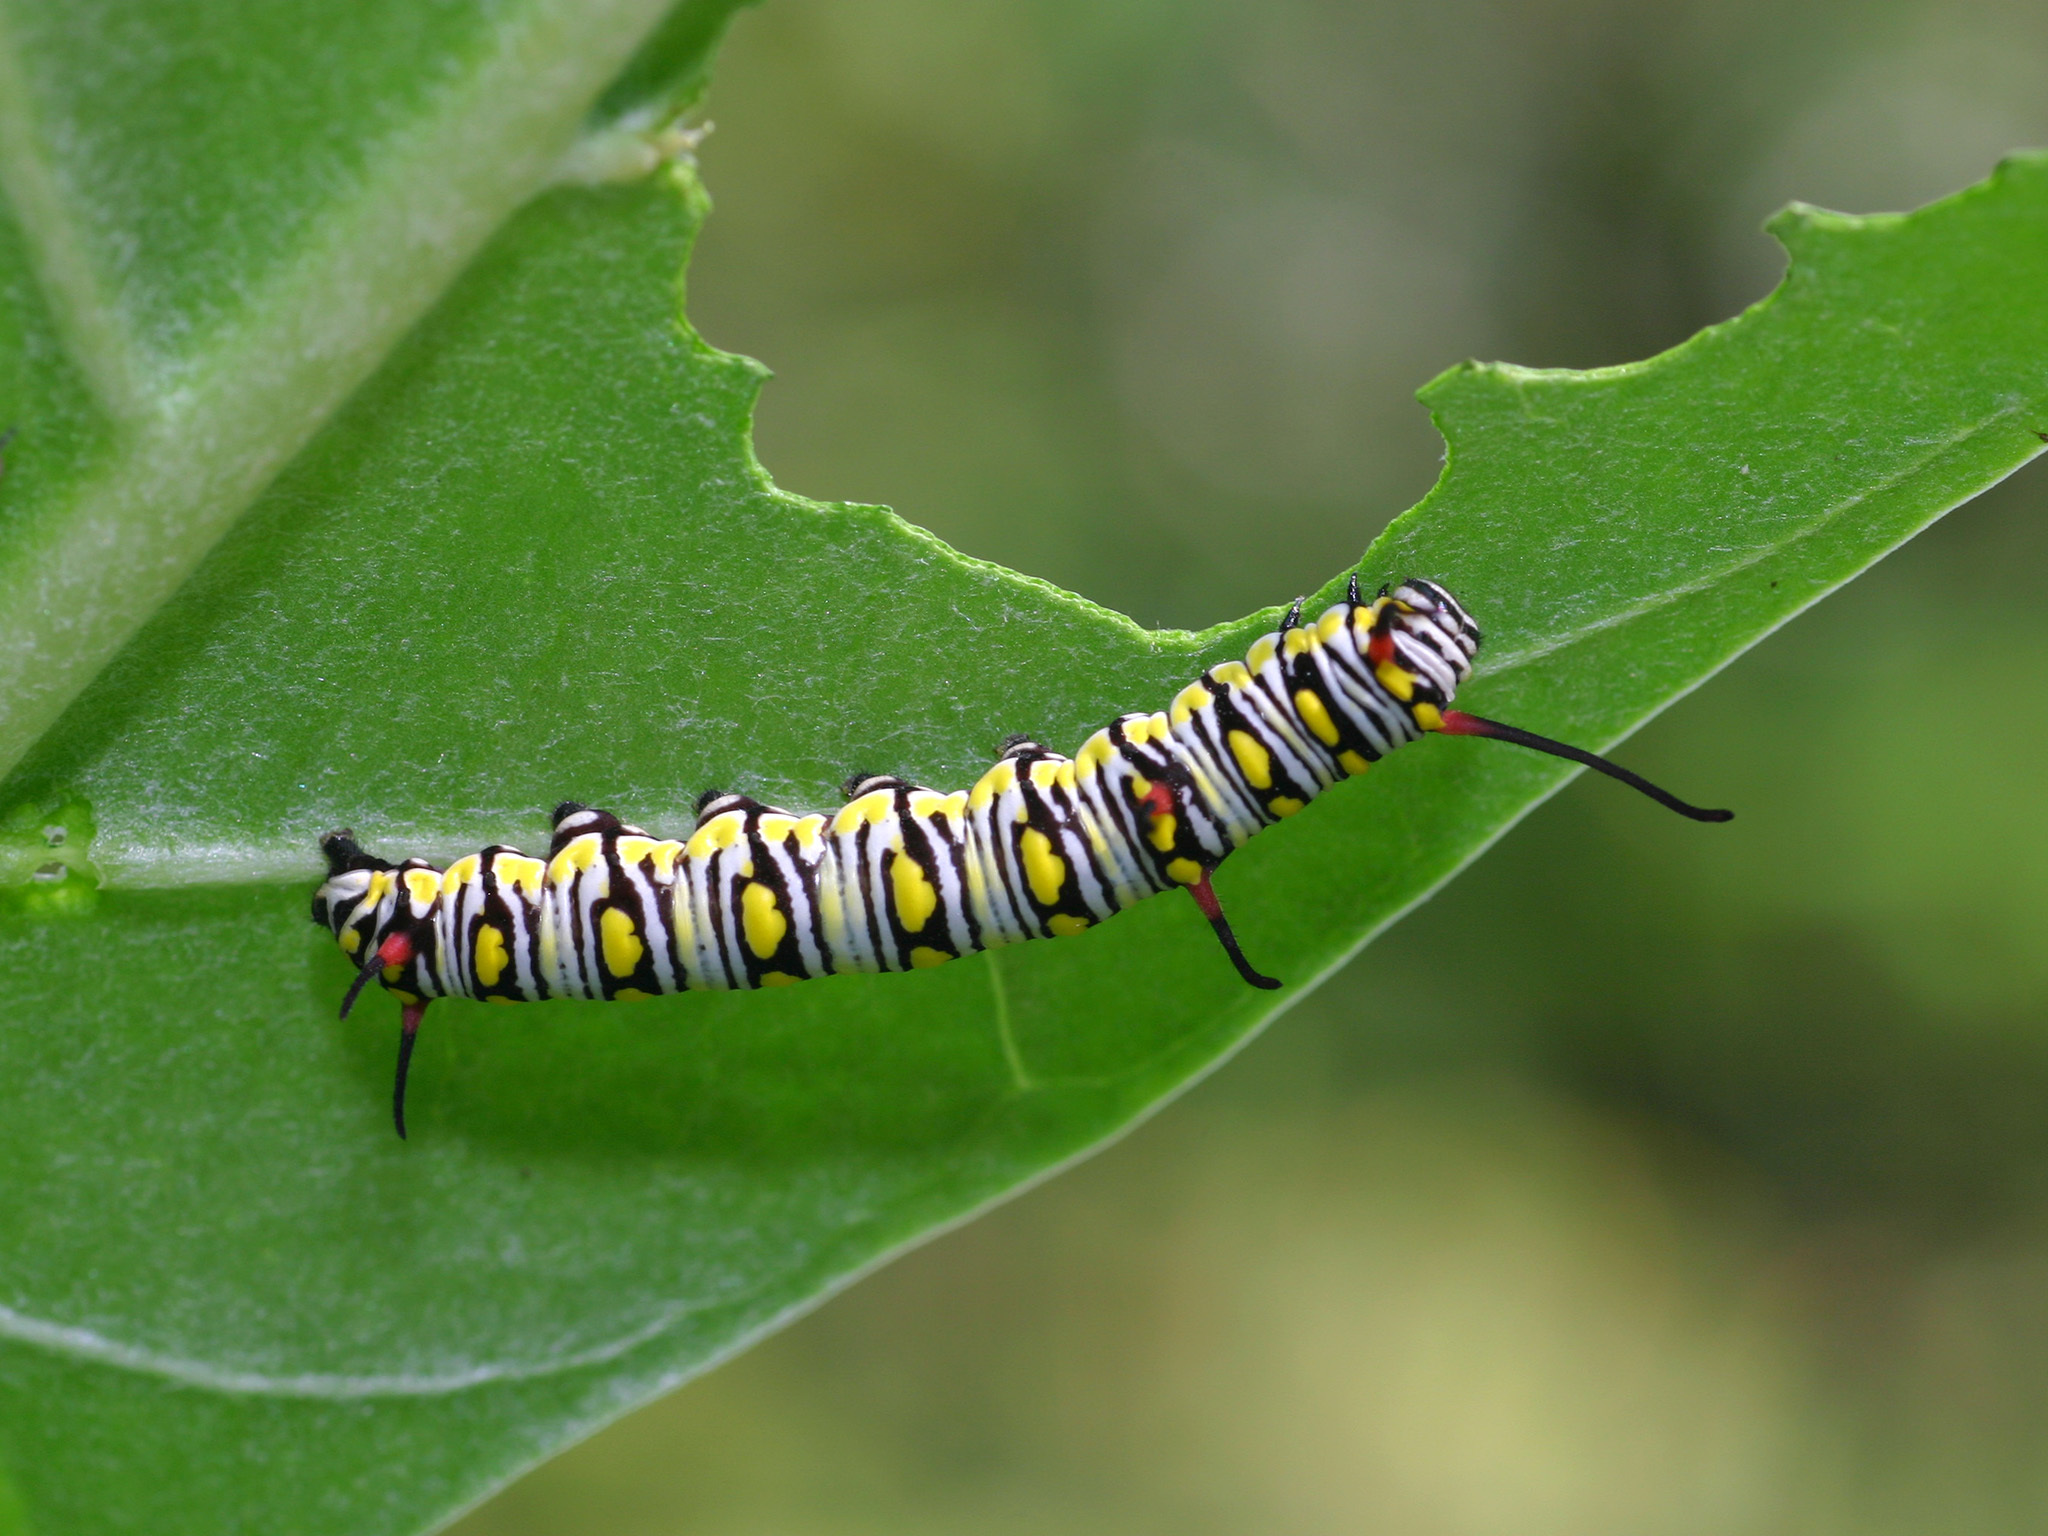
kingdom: Animalia
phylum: Arthropoda
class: Insecta
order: Lepidoptera
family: Nymphalidae
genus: Danaus
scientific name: Danaus chrysippus
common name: Plain tiger
